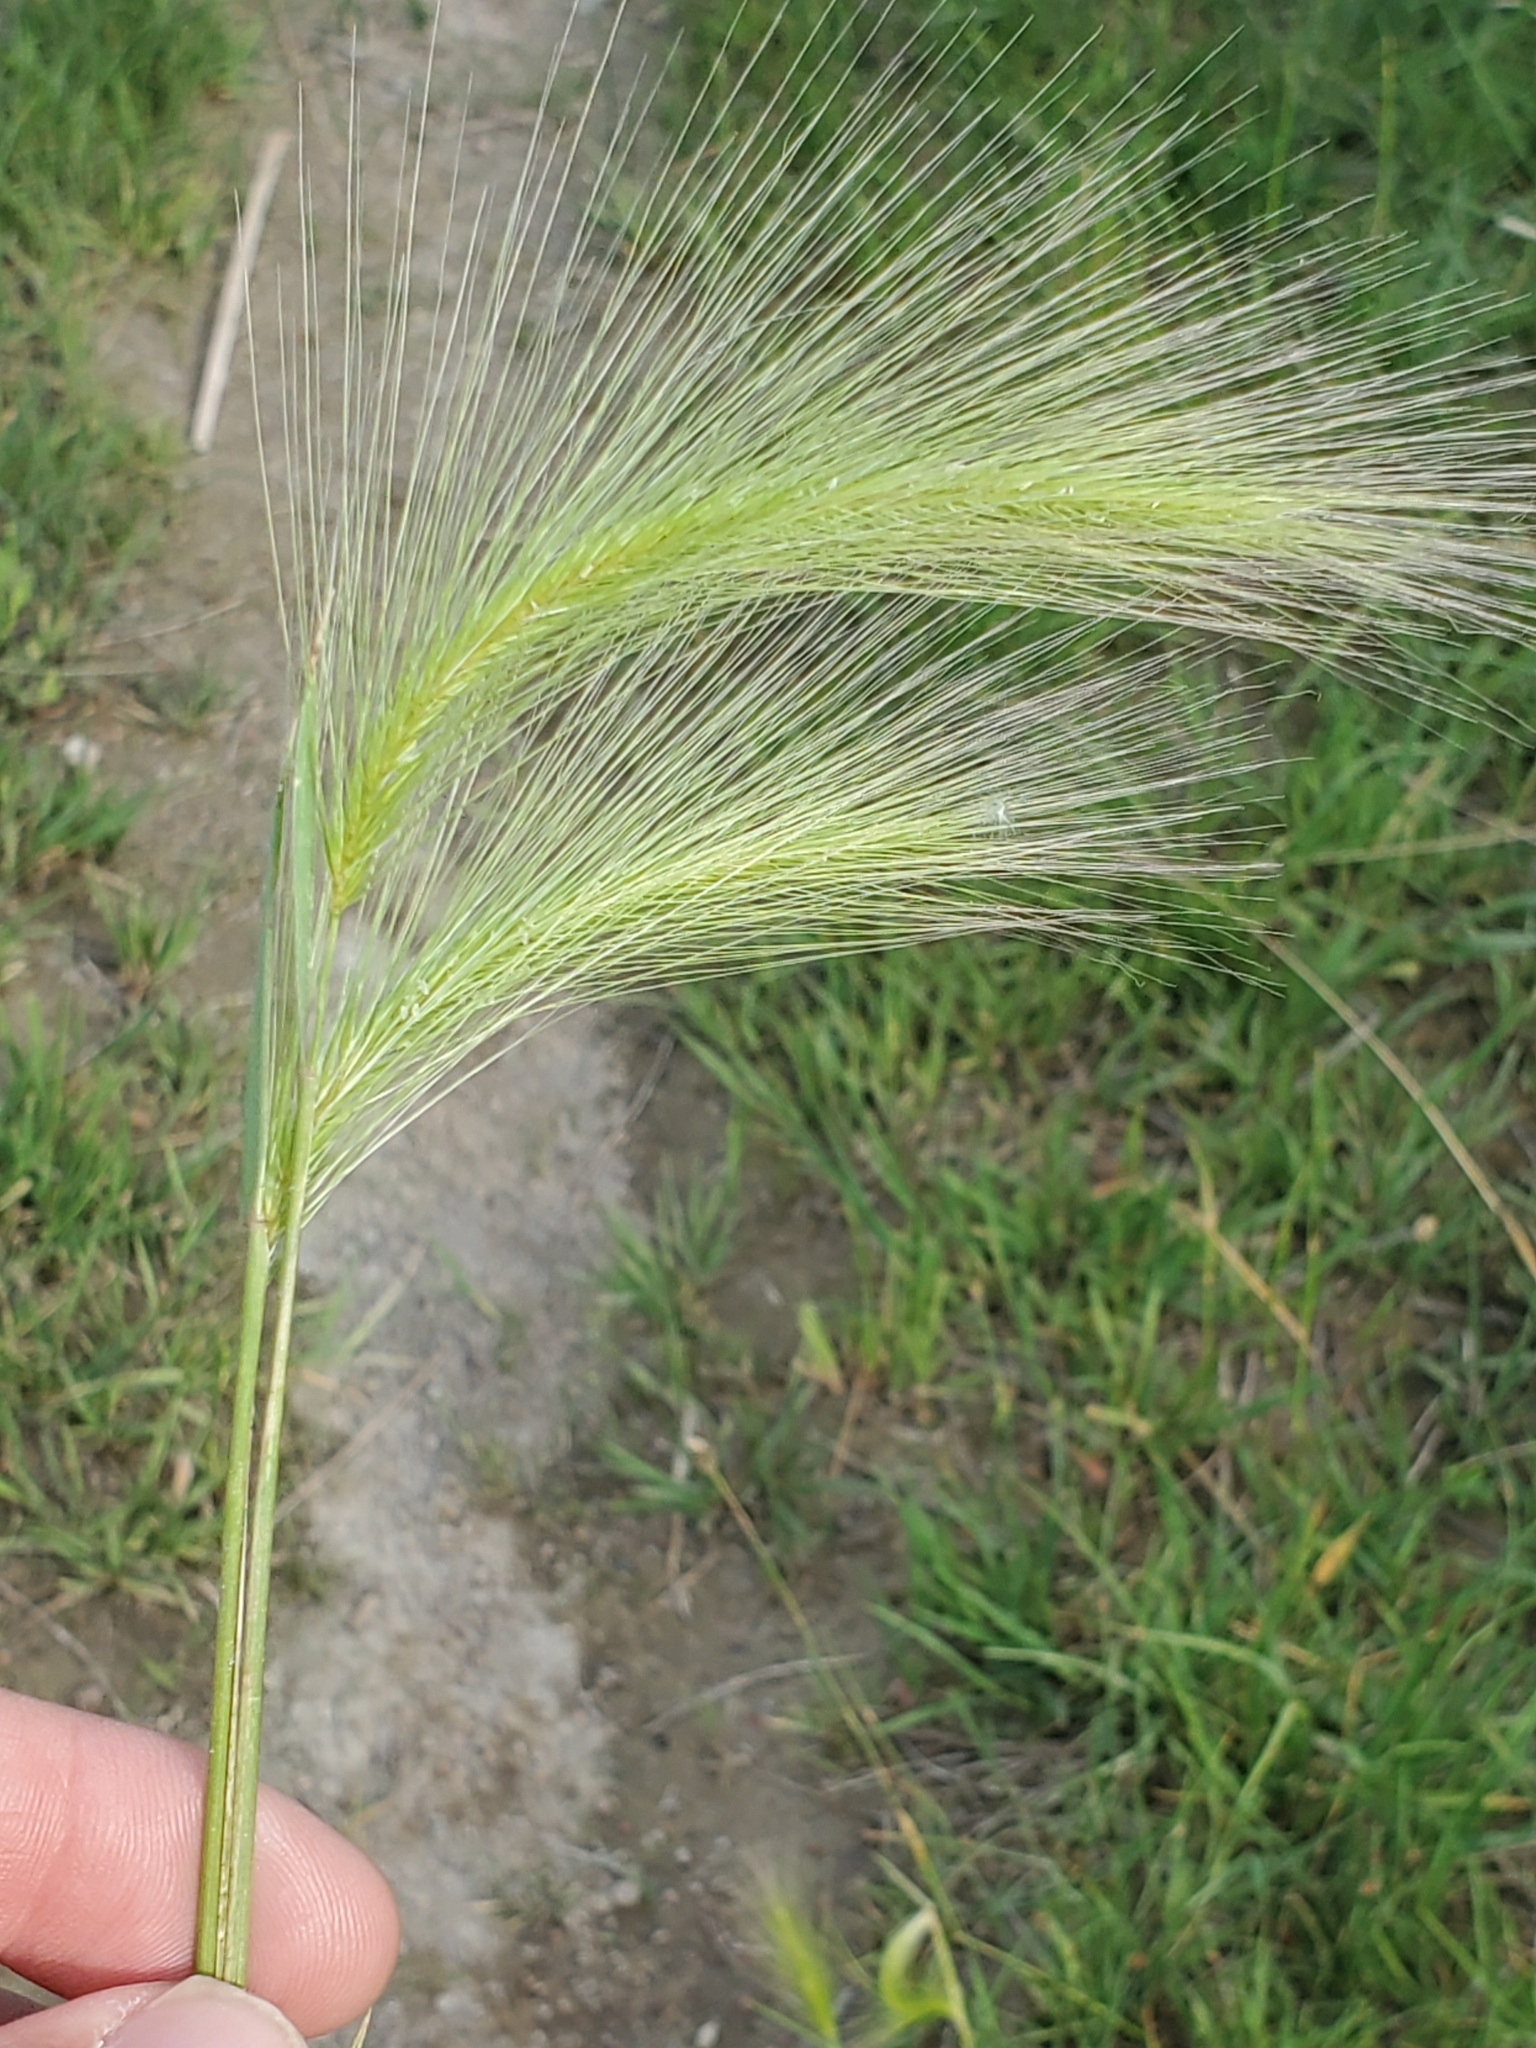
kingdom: Plantae
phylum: Tracheophyta
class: Liliopsida
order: Poales
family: Poaceae
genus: Hordeum
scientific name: Hordeum jubatum
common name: Foxtail barley
